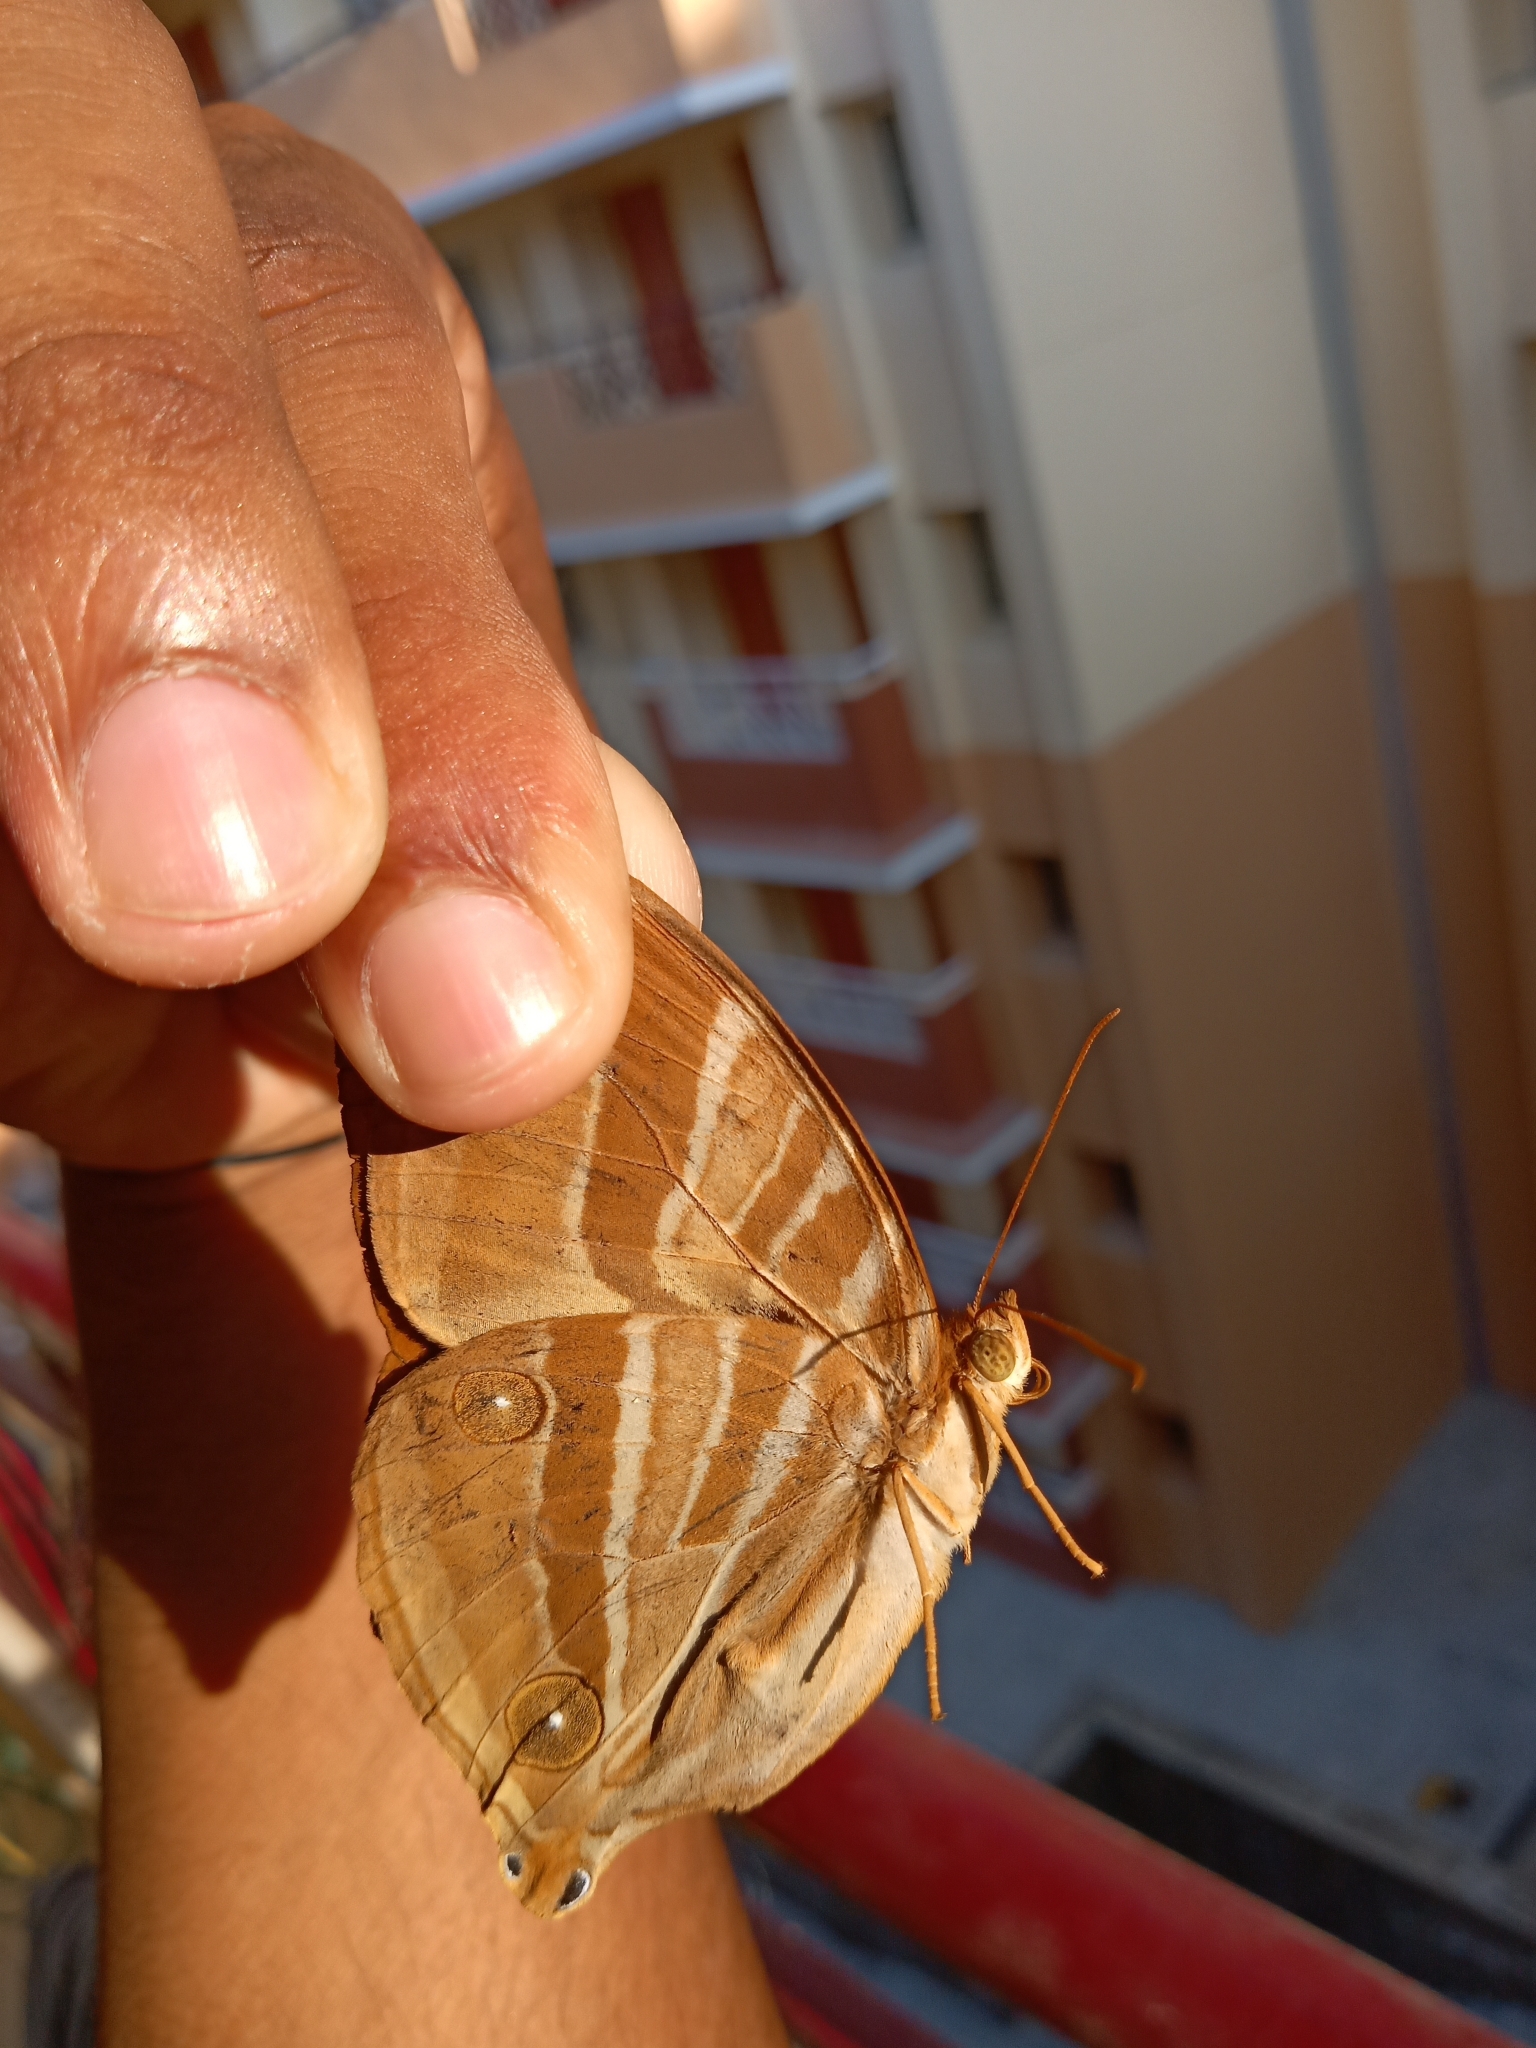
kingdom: Animalia
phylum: Arthropoda
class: Insecta
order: Lepidoptera
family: Nymphalidae
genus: Amathusia
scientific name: Amathusia phidippus
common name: Palm king
